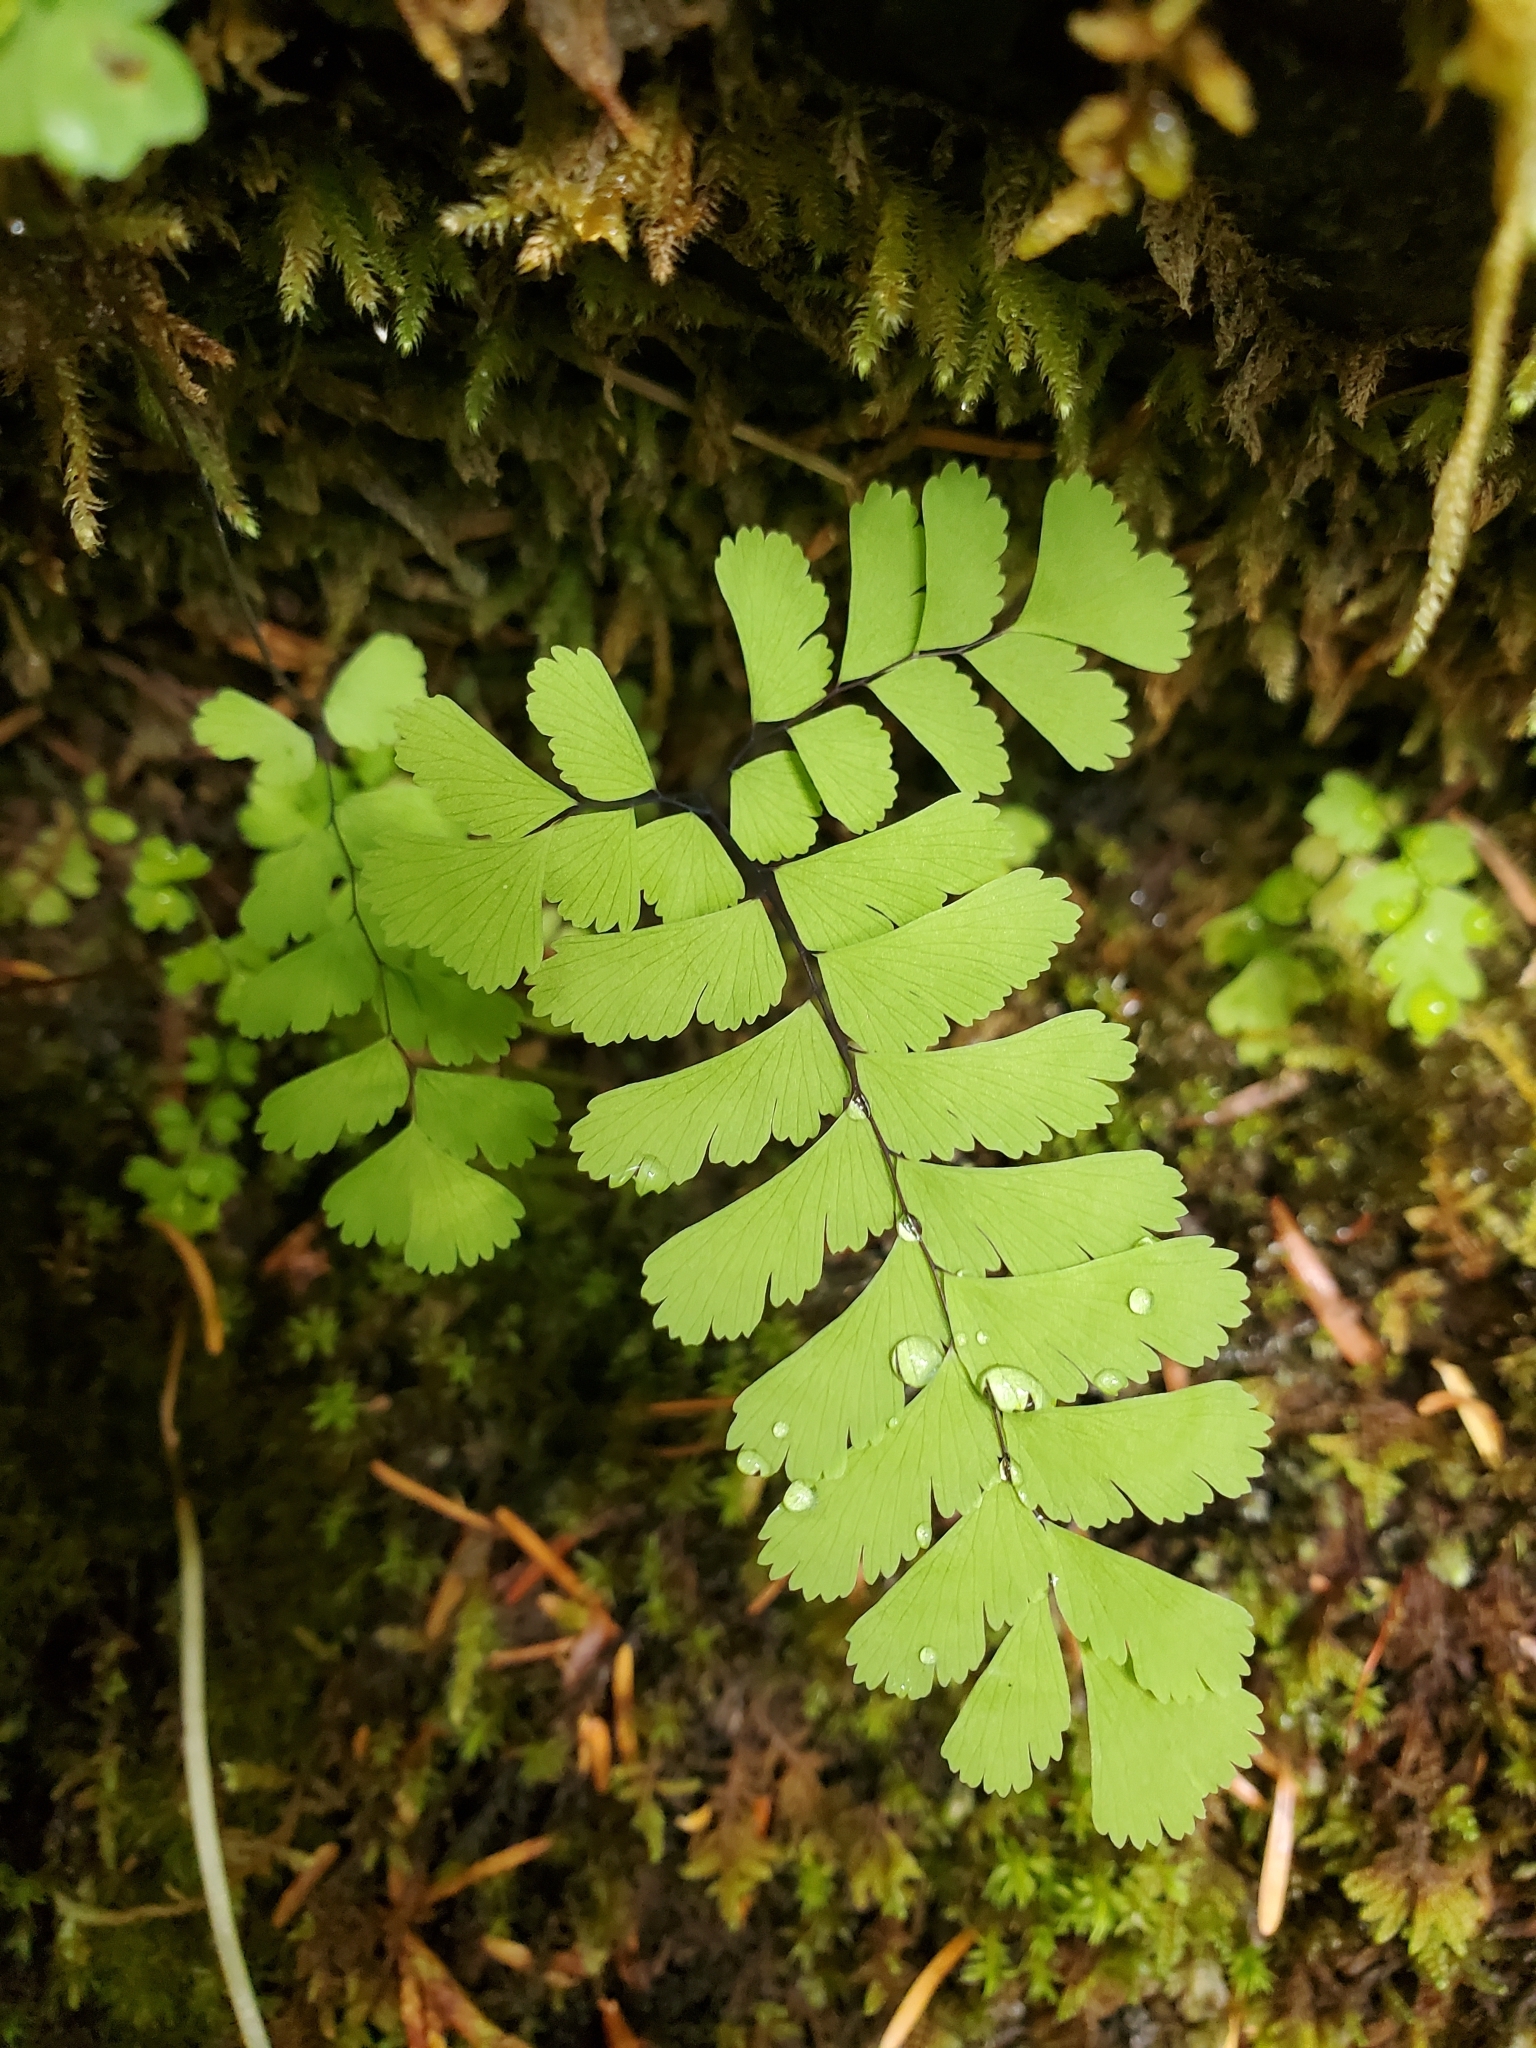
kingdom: Plantae
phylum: Tracheophyta
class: Polypodiopsida
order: Polypodiales
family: Pteridaceae
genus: Adiantum
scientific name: Adiantum aleuticum
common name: Aleutian maidenhair fern
